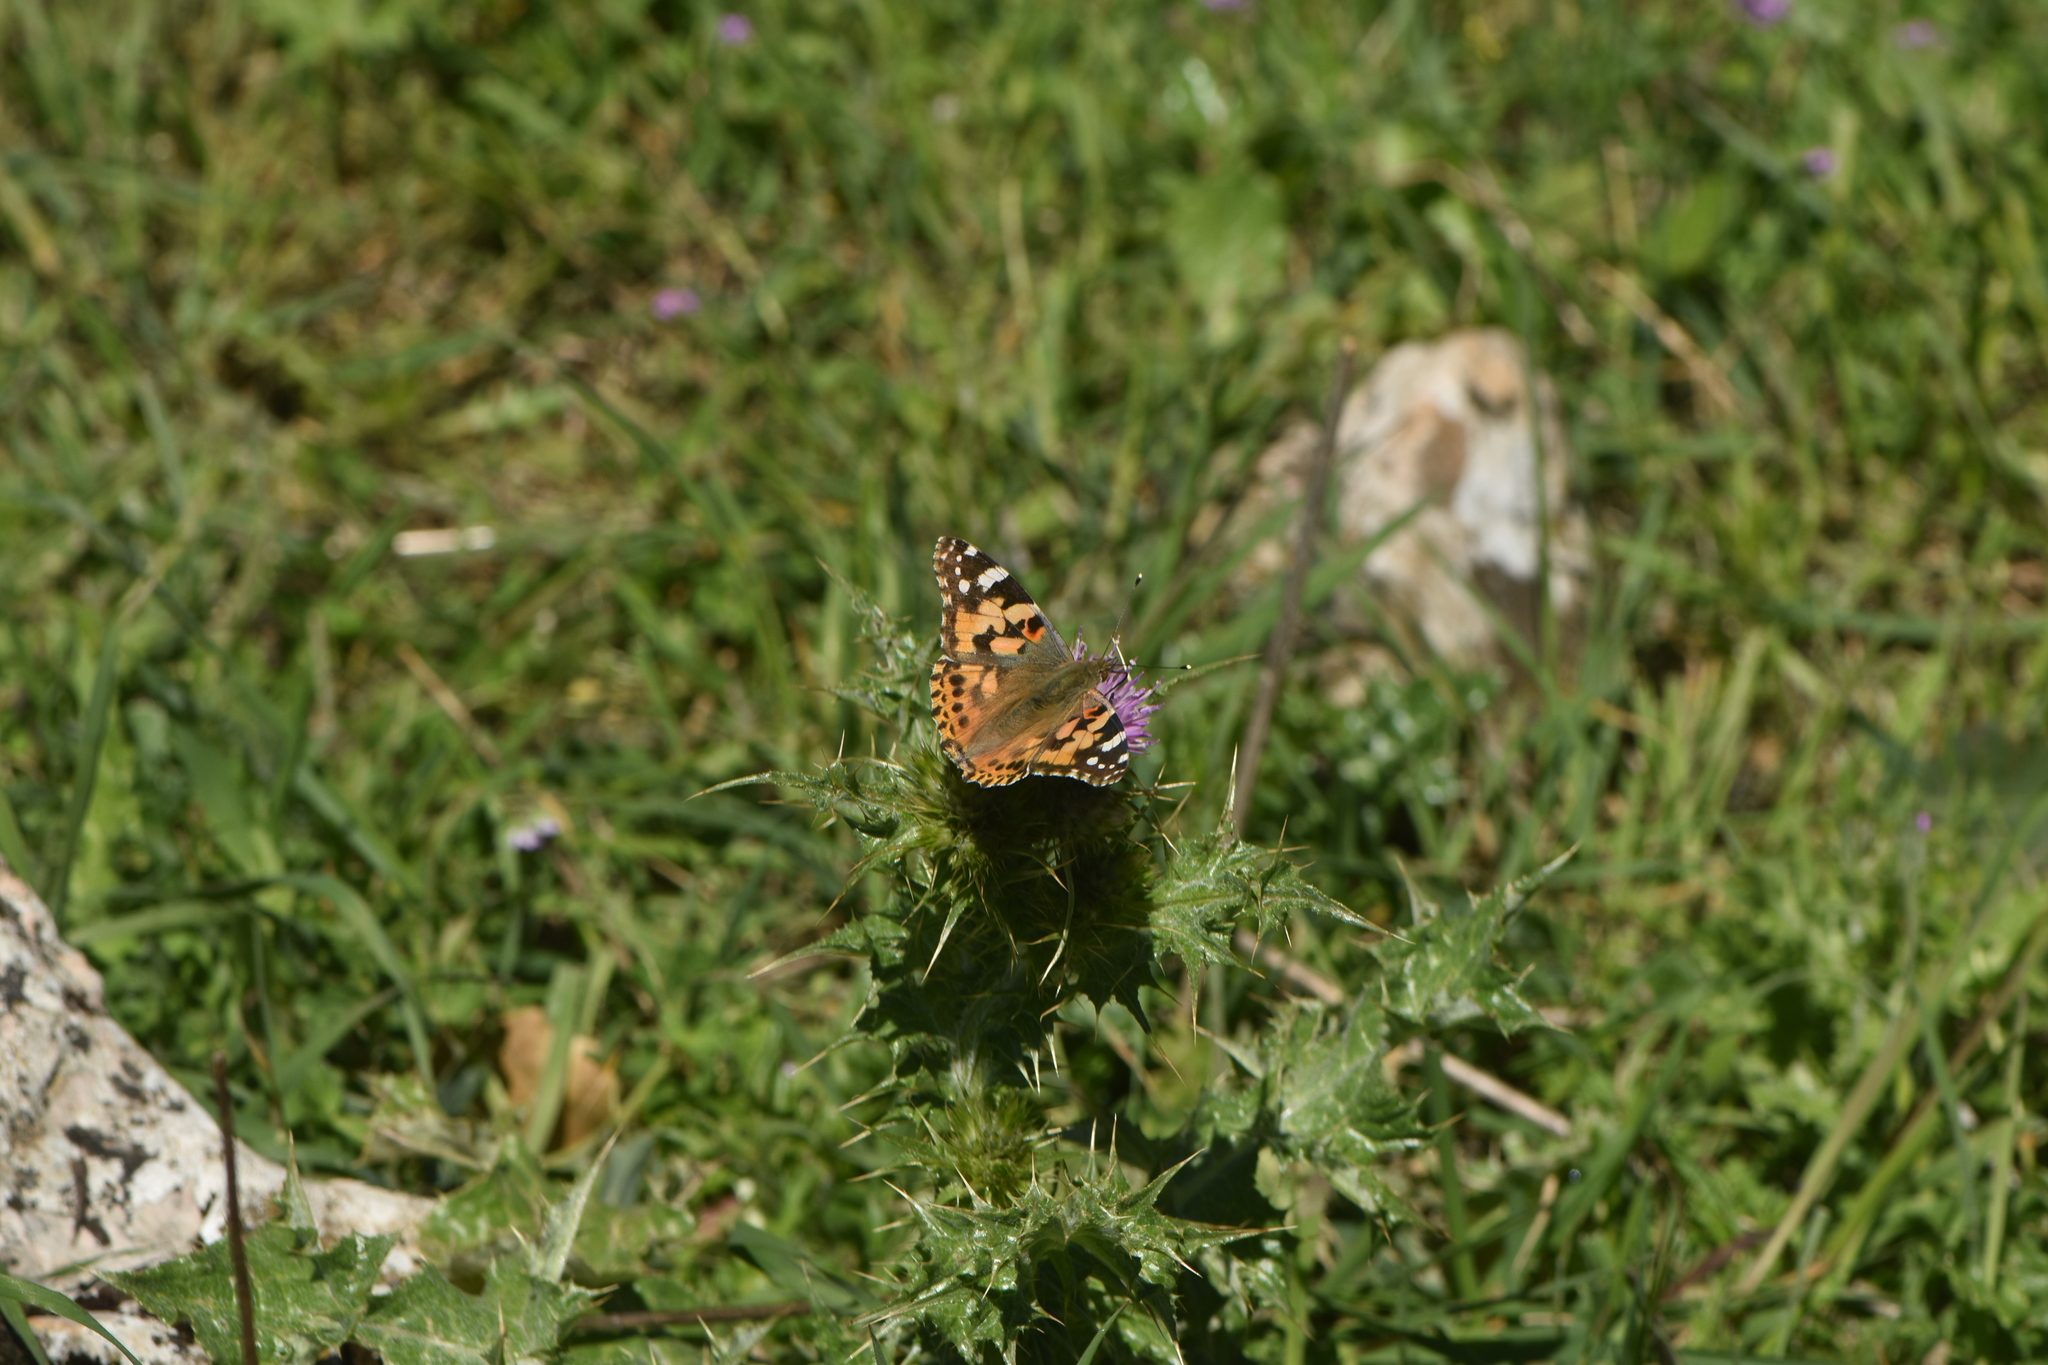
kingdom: Animalia
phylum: Arthropoda
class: Insecta
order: Lepidoptera
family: Nymphalidae
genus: Vanessa
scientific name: Vanessa cardui
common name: Painted lady
